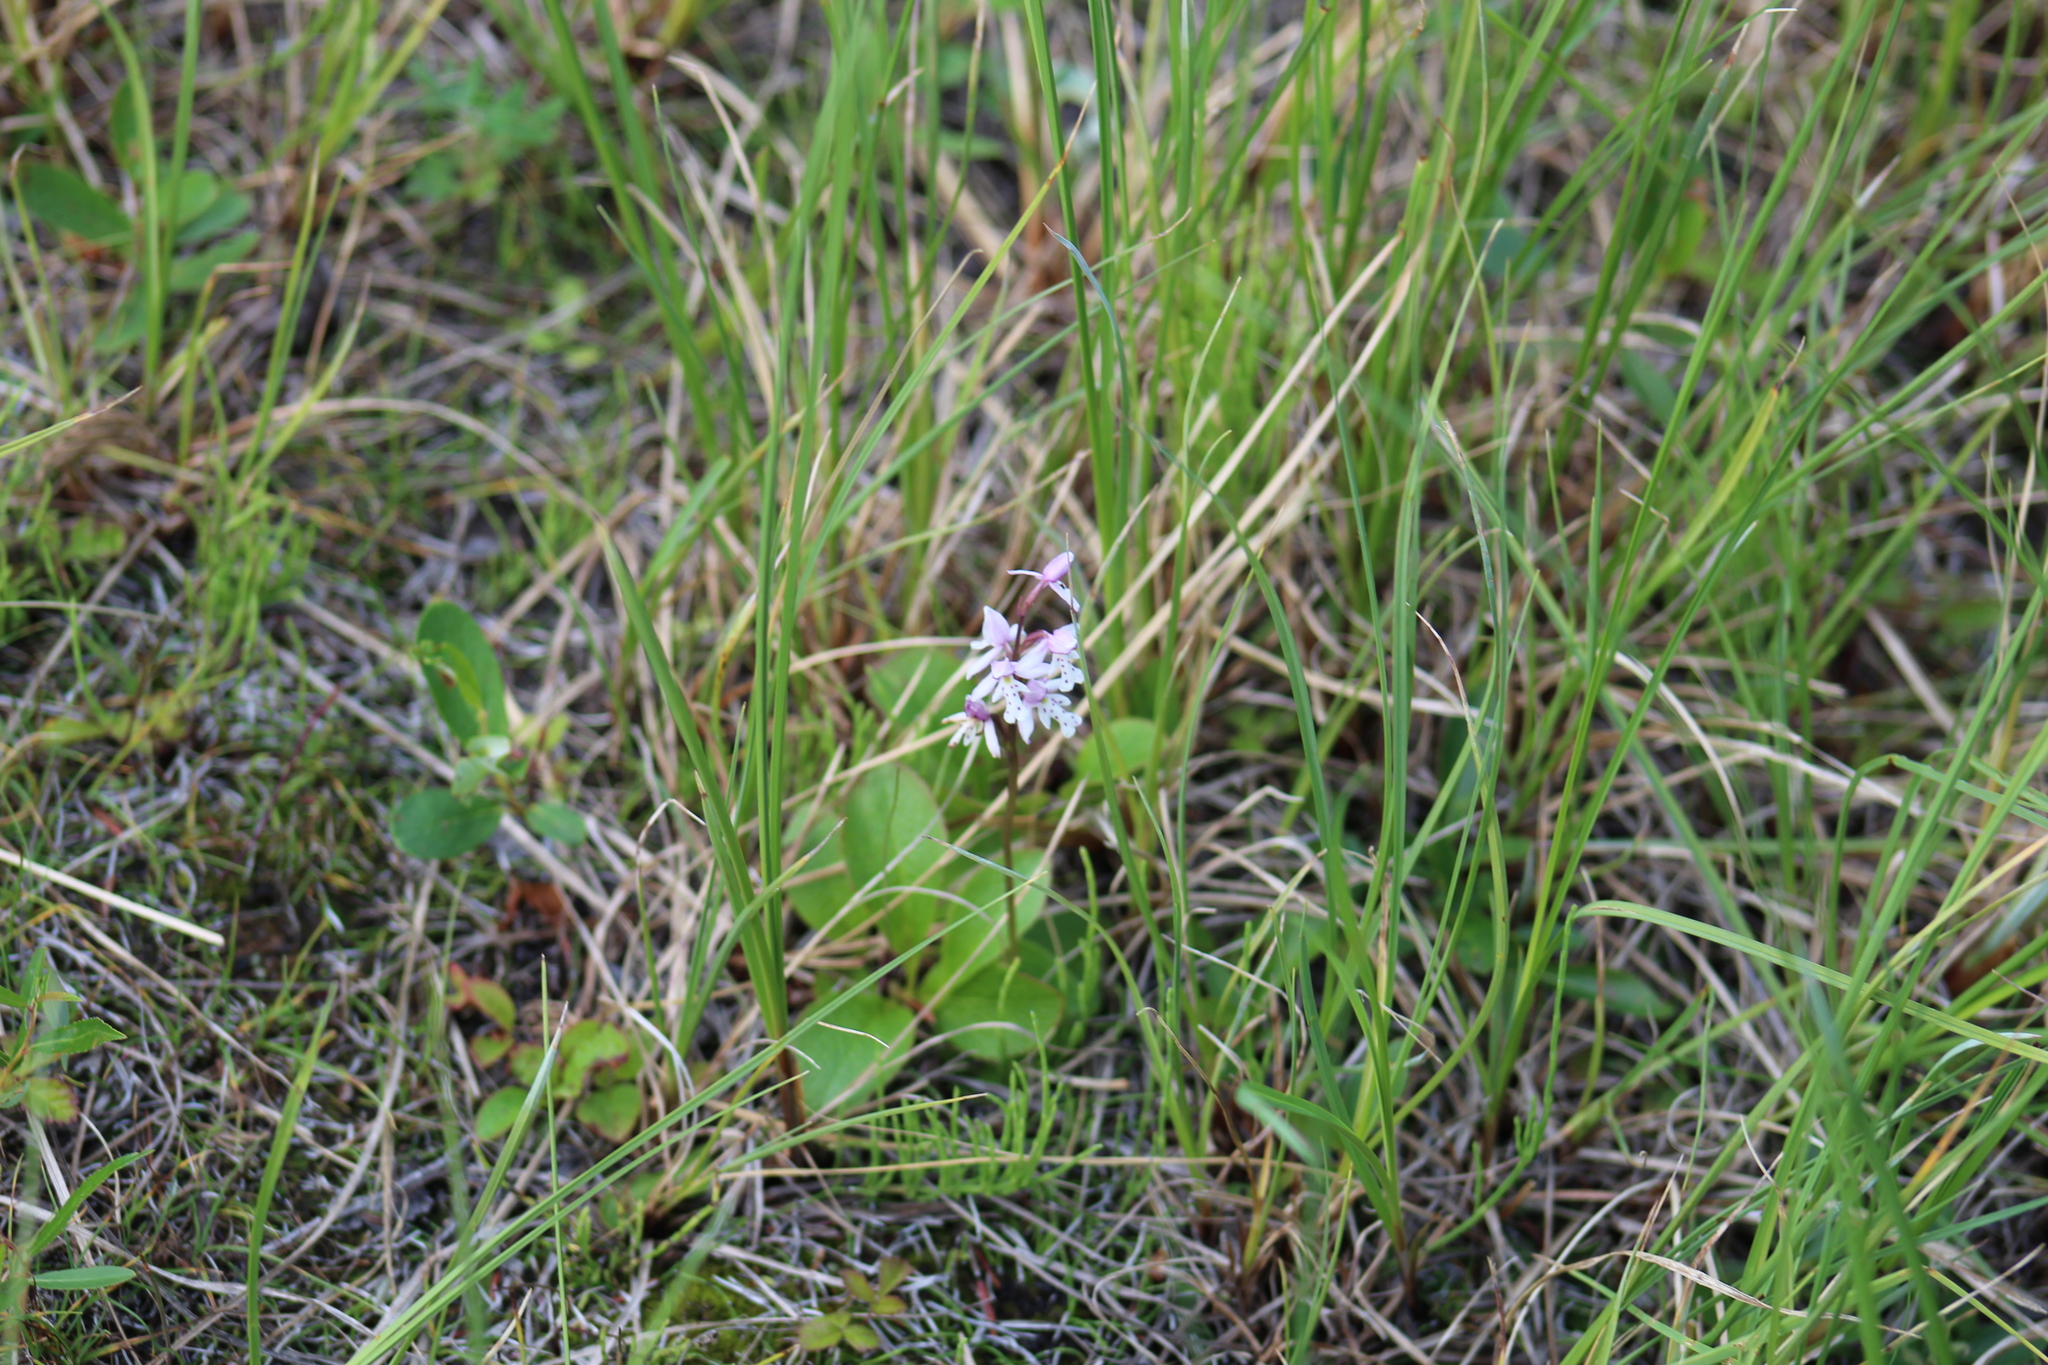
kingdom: Plantae
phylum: Tracheophyta
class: Liliopsida
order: Asparagales
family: Orchidaceae
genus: Galearis
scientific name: Galearis rotundifolia
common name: One-leaved orchis
